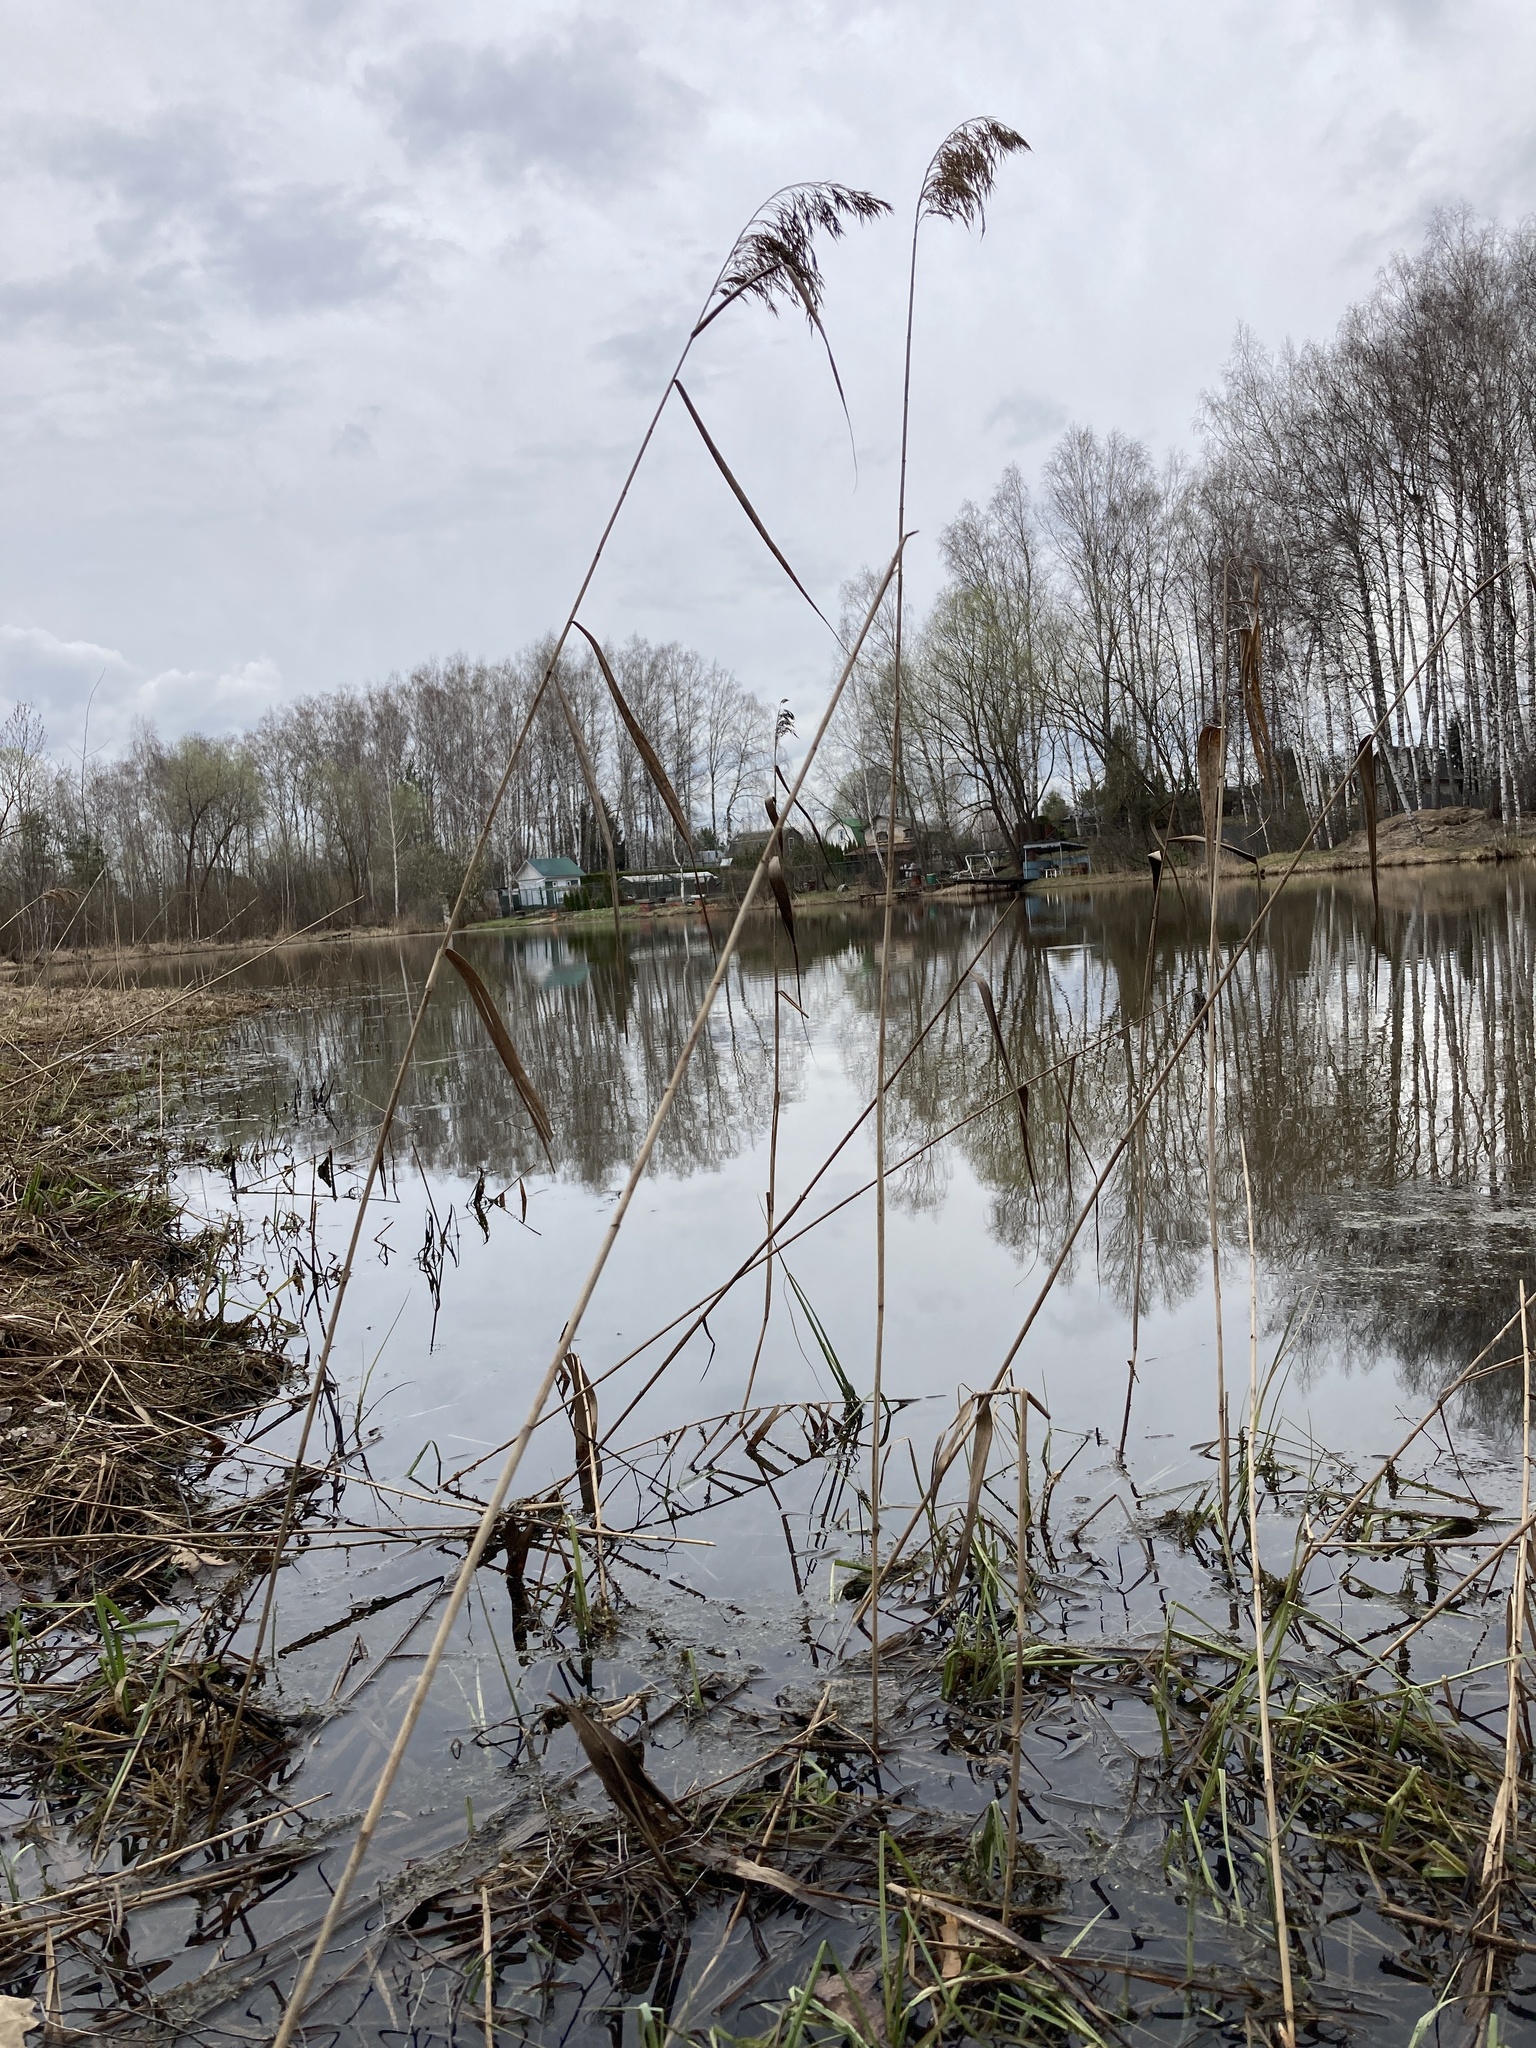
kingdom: Plantae
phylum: Tracheophyta
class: Liliopsida
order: Poales
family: Poaceae
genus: Phragmites
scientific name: Phragmites australis
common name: Common reed
